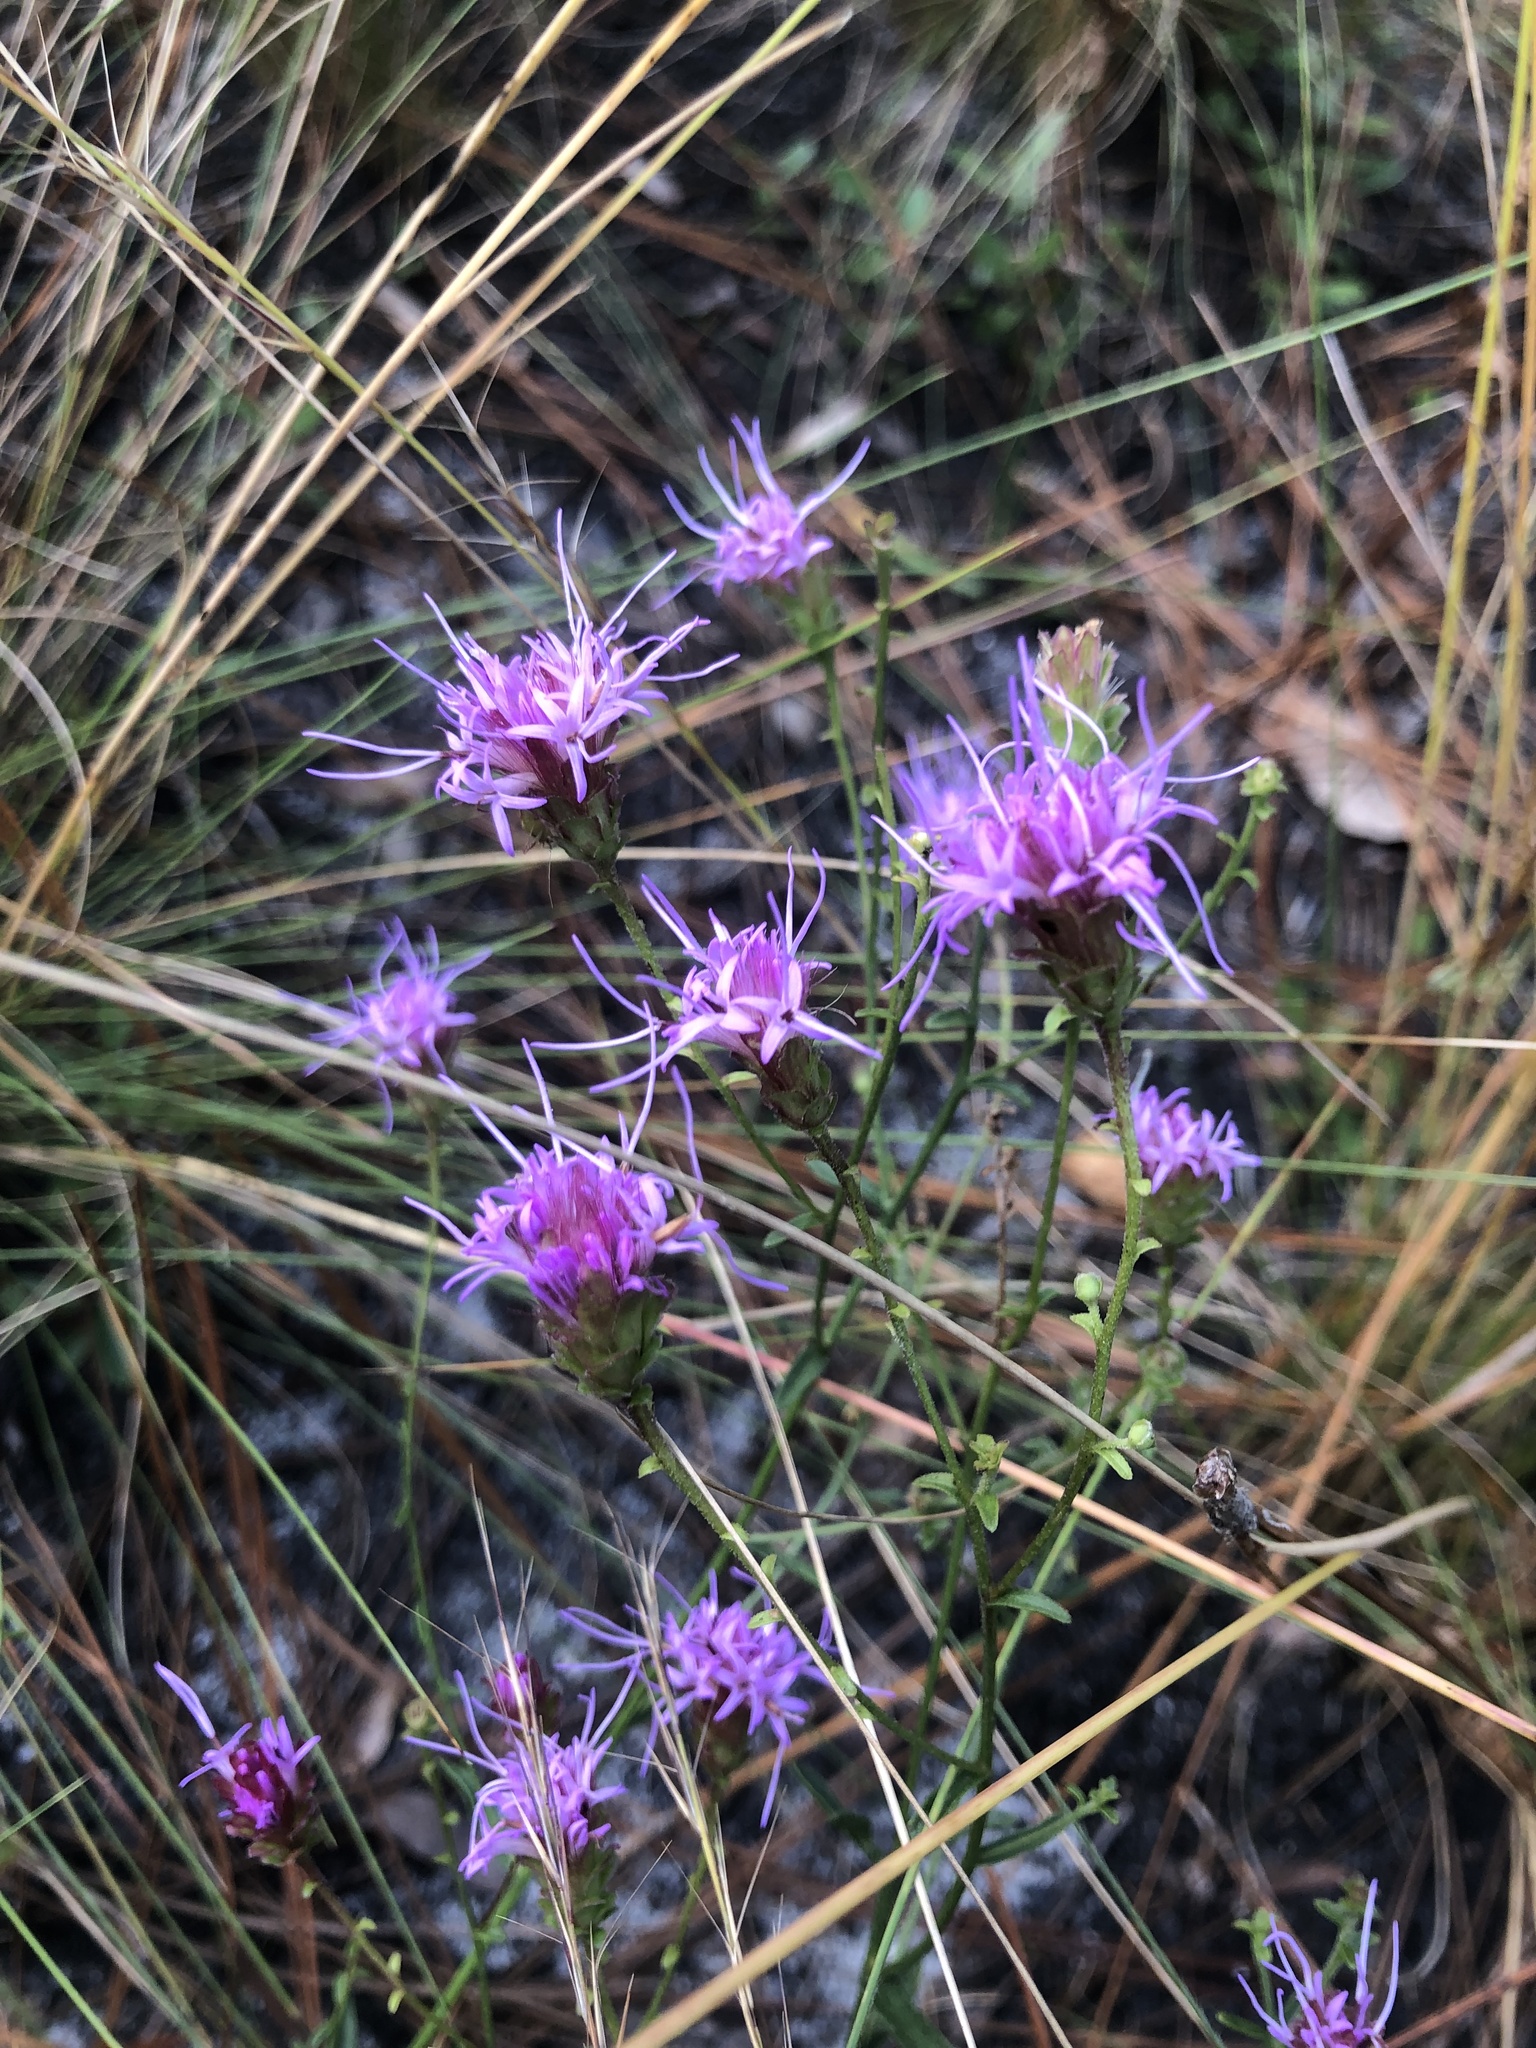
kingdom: Plantae
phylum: Tracheophyta
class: Magnoliopsida
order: Asterales
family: Asteraceae
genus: Carphephorus
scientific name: Carphephorus bellidifolius
